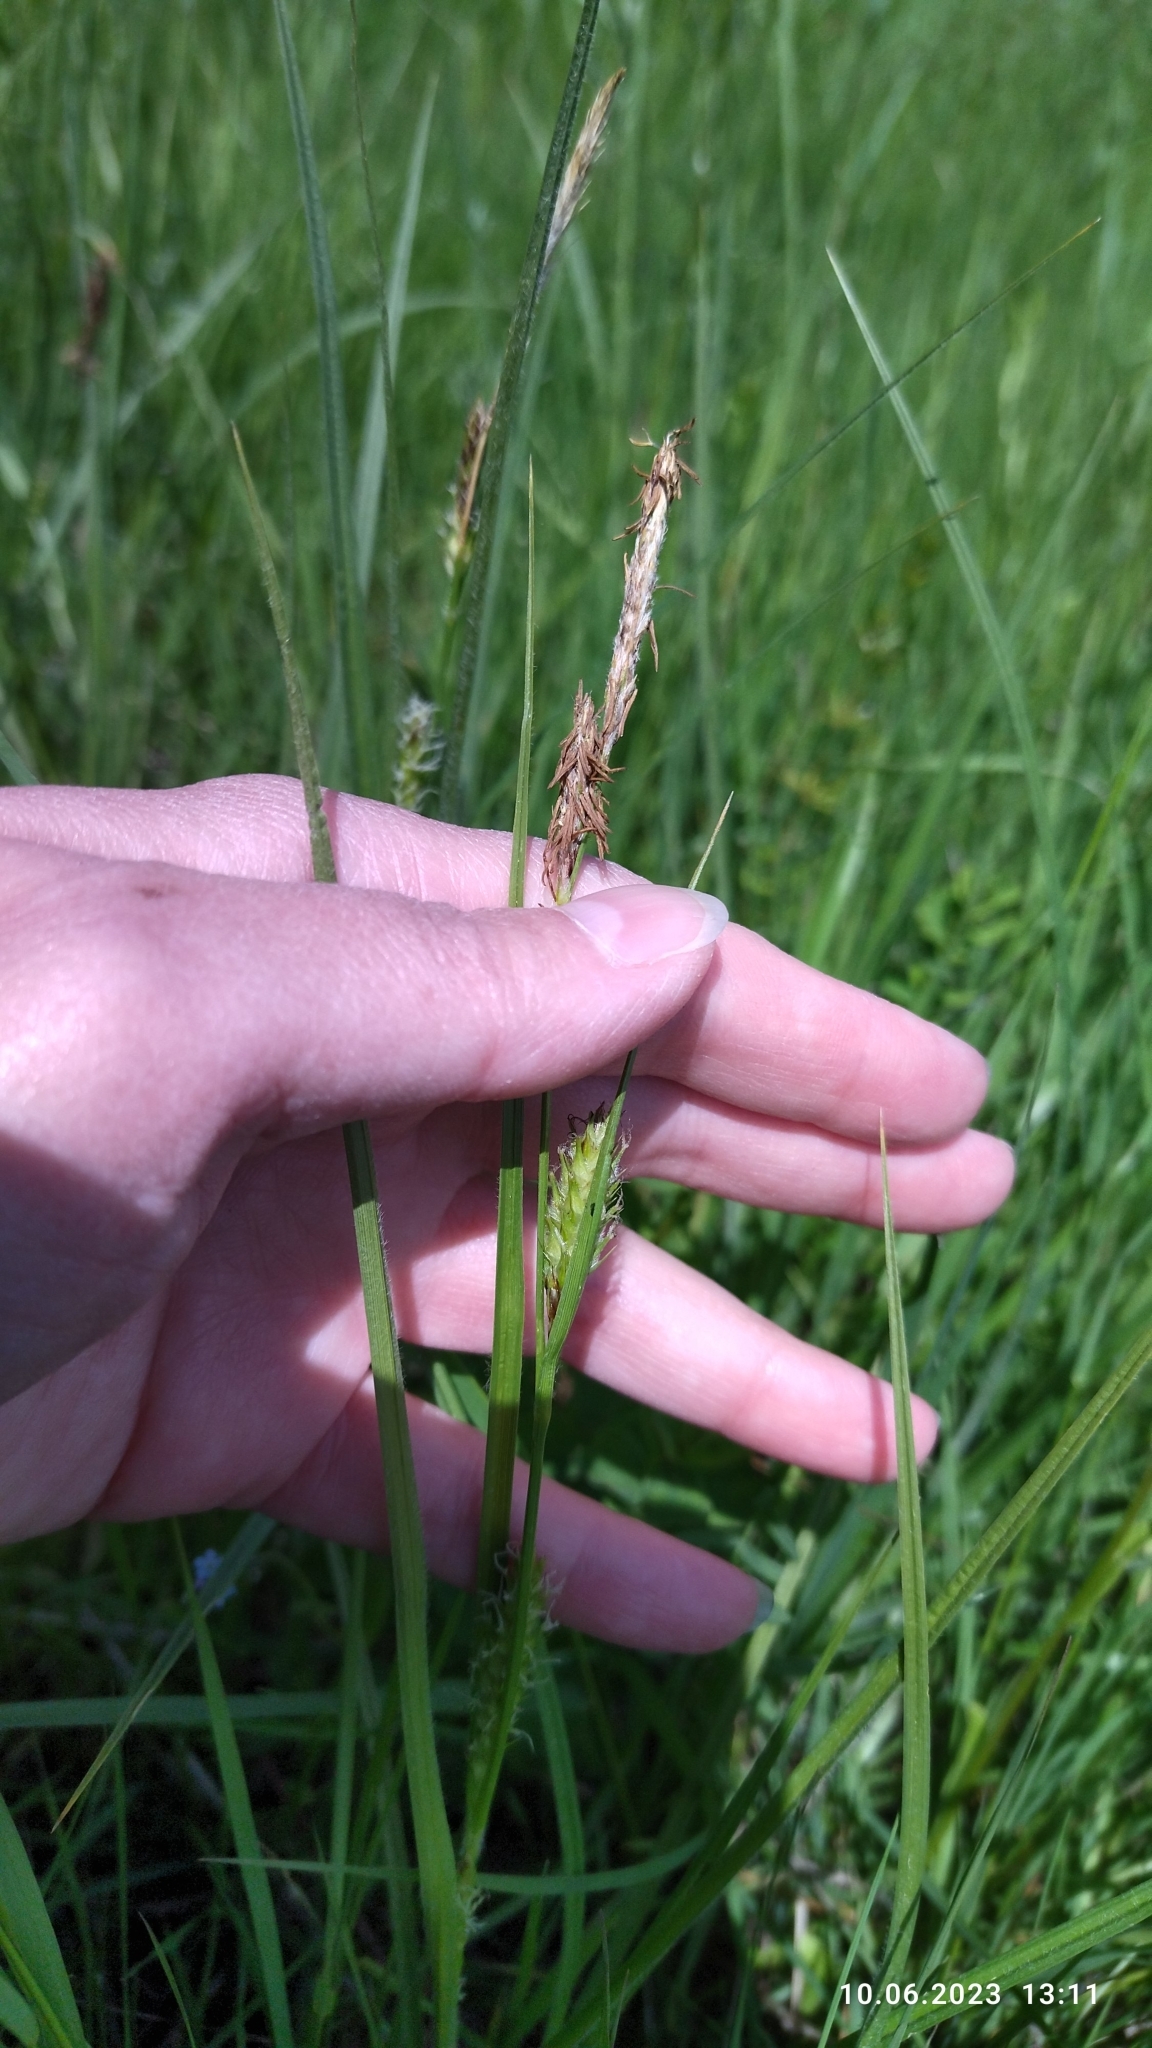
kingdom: Plantae
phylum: Tracheophyta
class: Liliopsida
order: Poales
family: Cyperaceae
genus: Carex
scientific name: Carex hirta
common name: Hairy sedge
